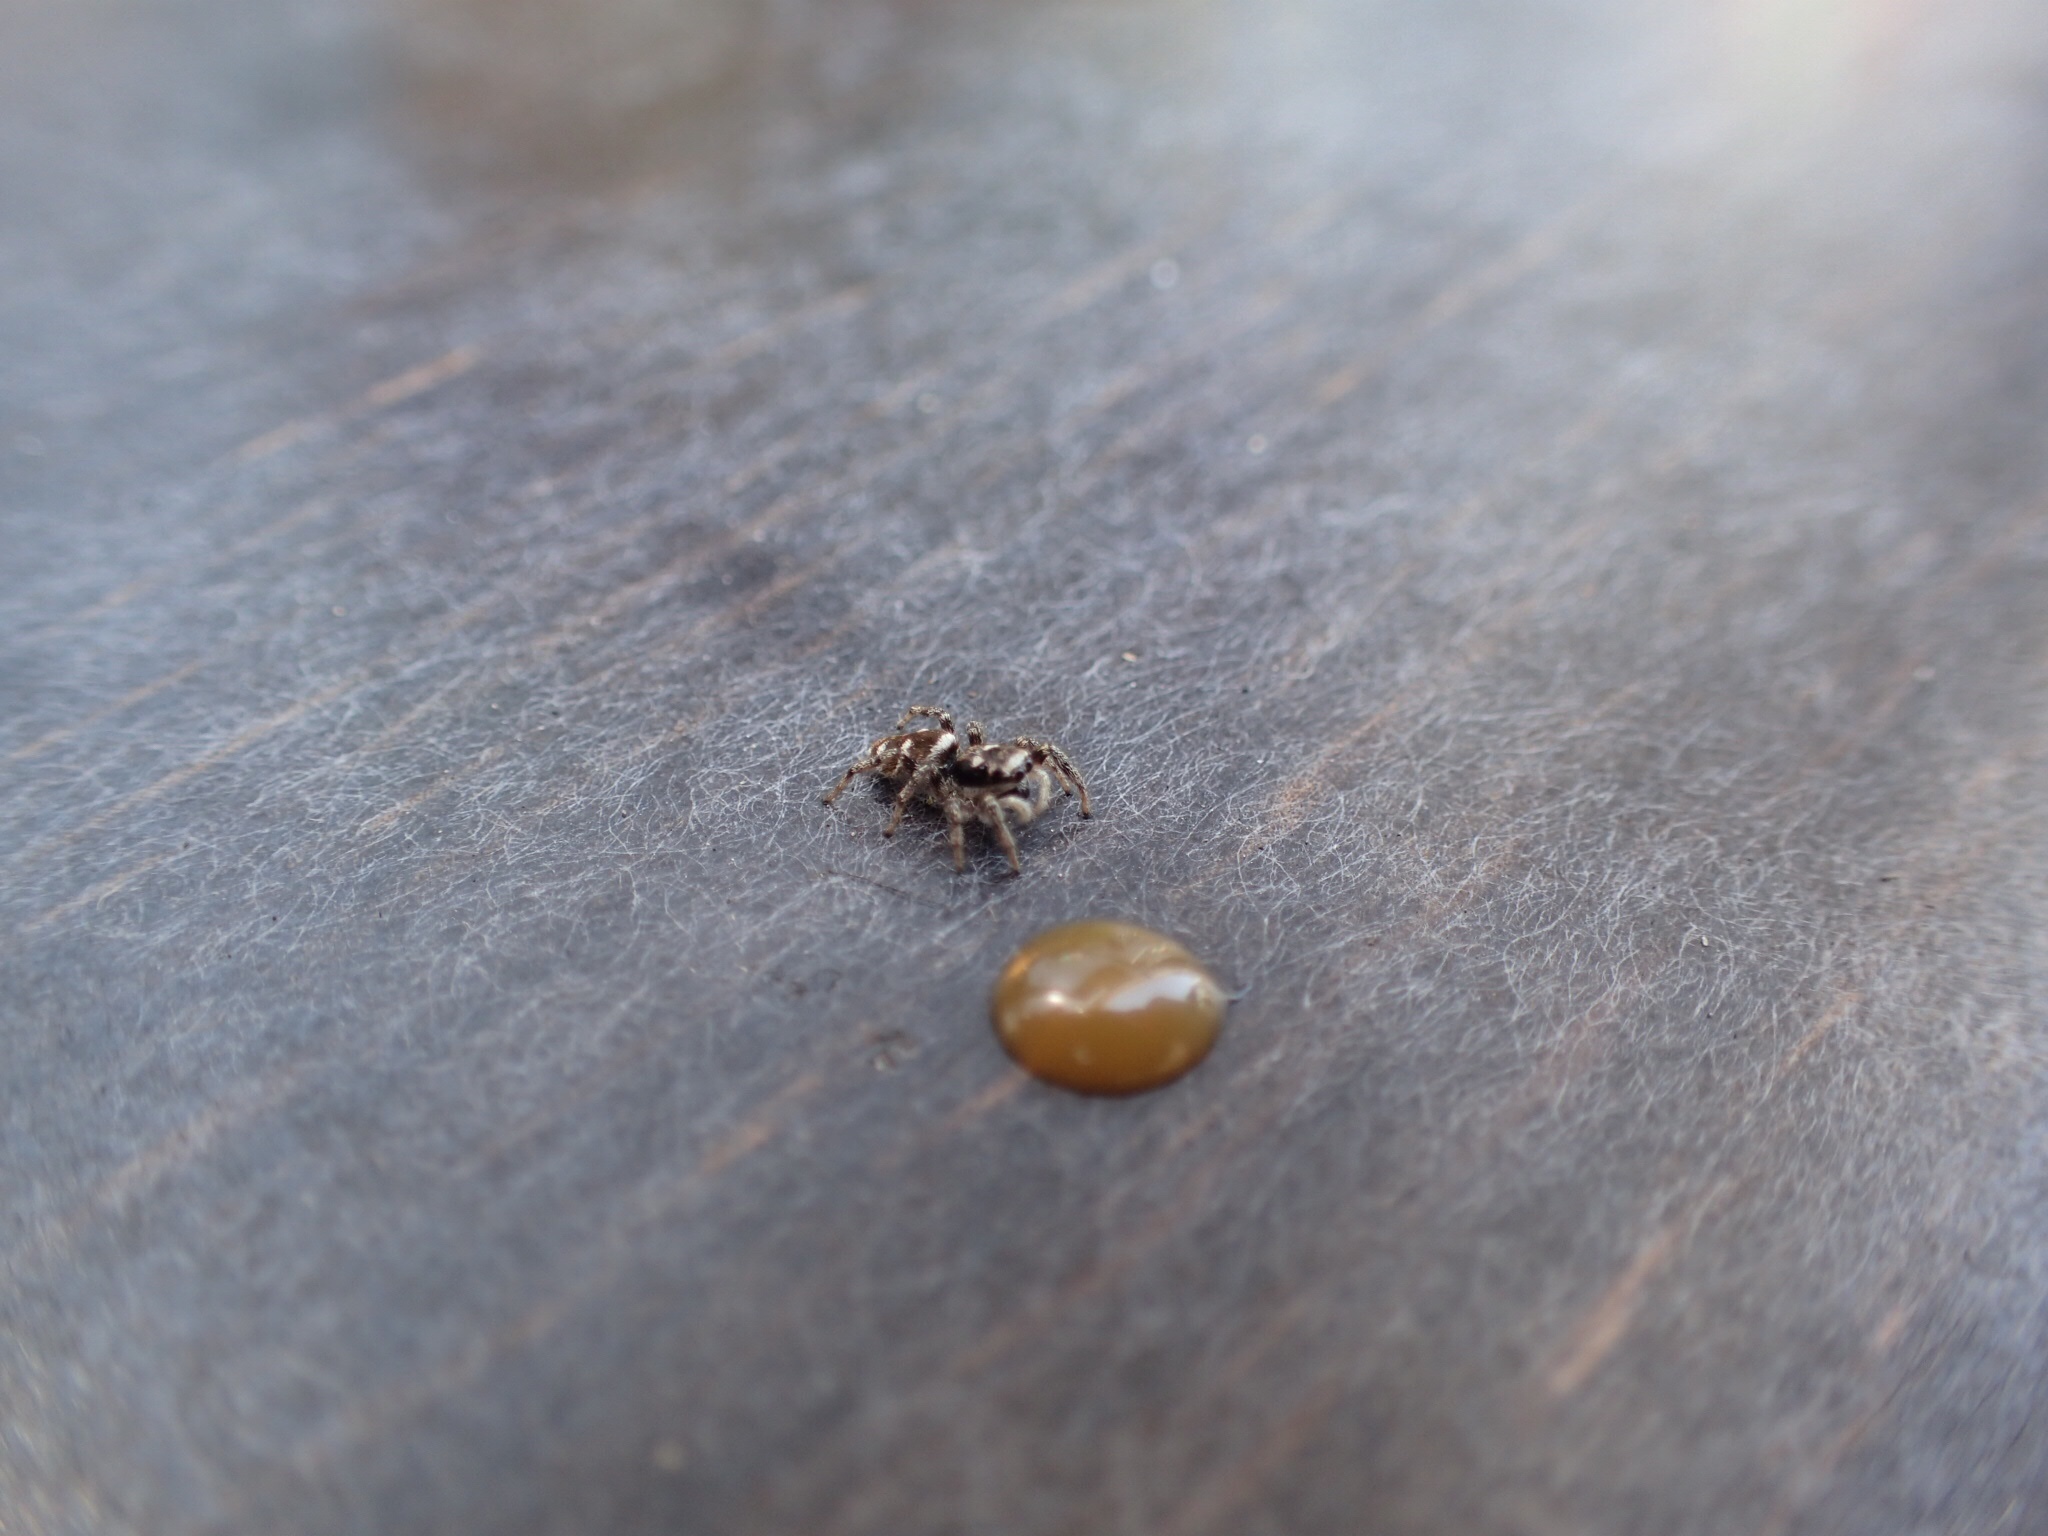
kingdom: Animalia
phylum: Arthropoda
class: Arachnida
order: Araneae
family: Salticidae
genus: Salticus
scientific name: Salticus scenicus
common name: Zebra jumper
